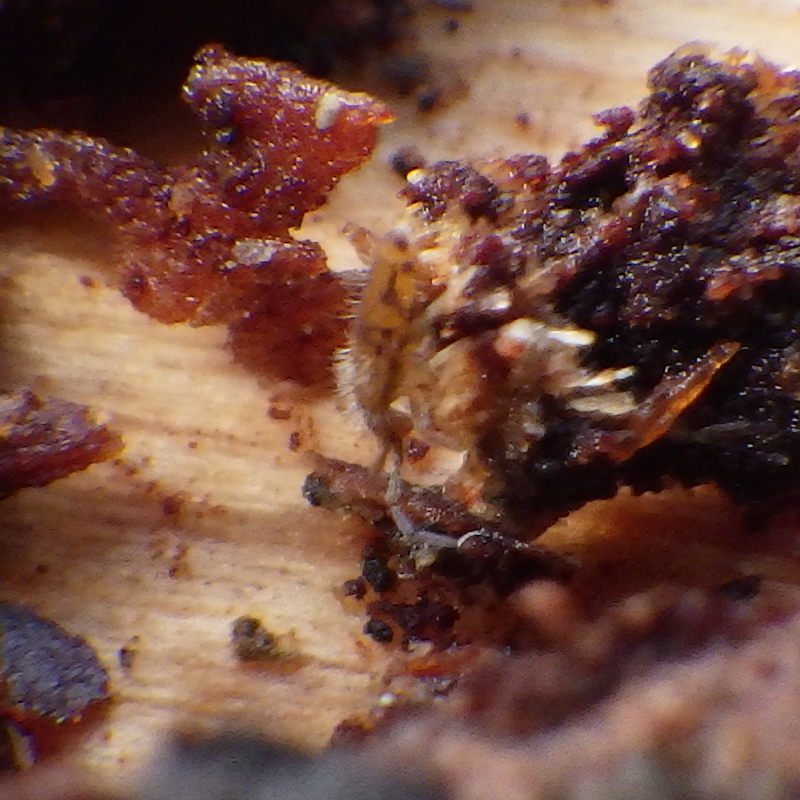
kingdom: Animalia
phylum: Arthropoda
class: Collembola
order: Entomobryomorpha
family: Entomobryidae
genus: Entomobrya
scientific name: Entomobrya nivalis
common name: Cosmopolitan springtail
